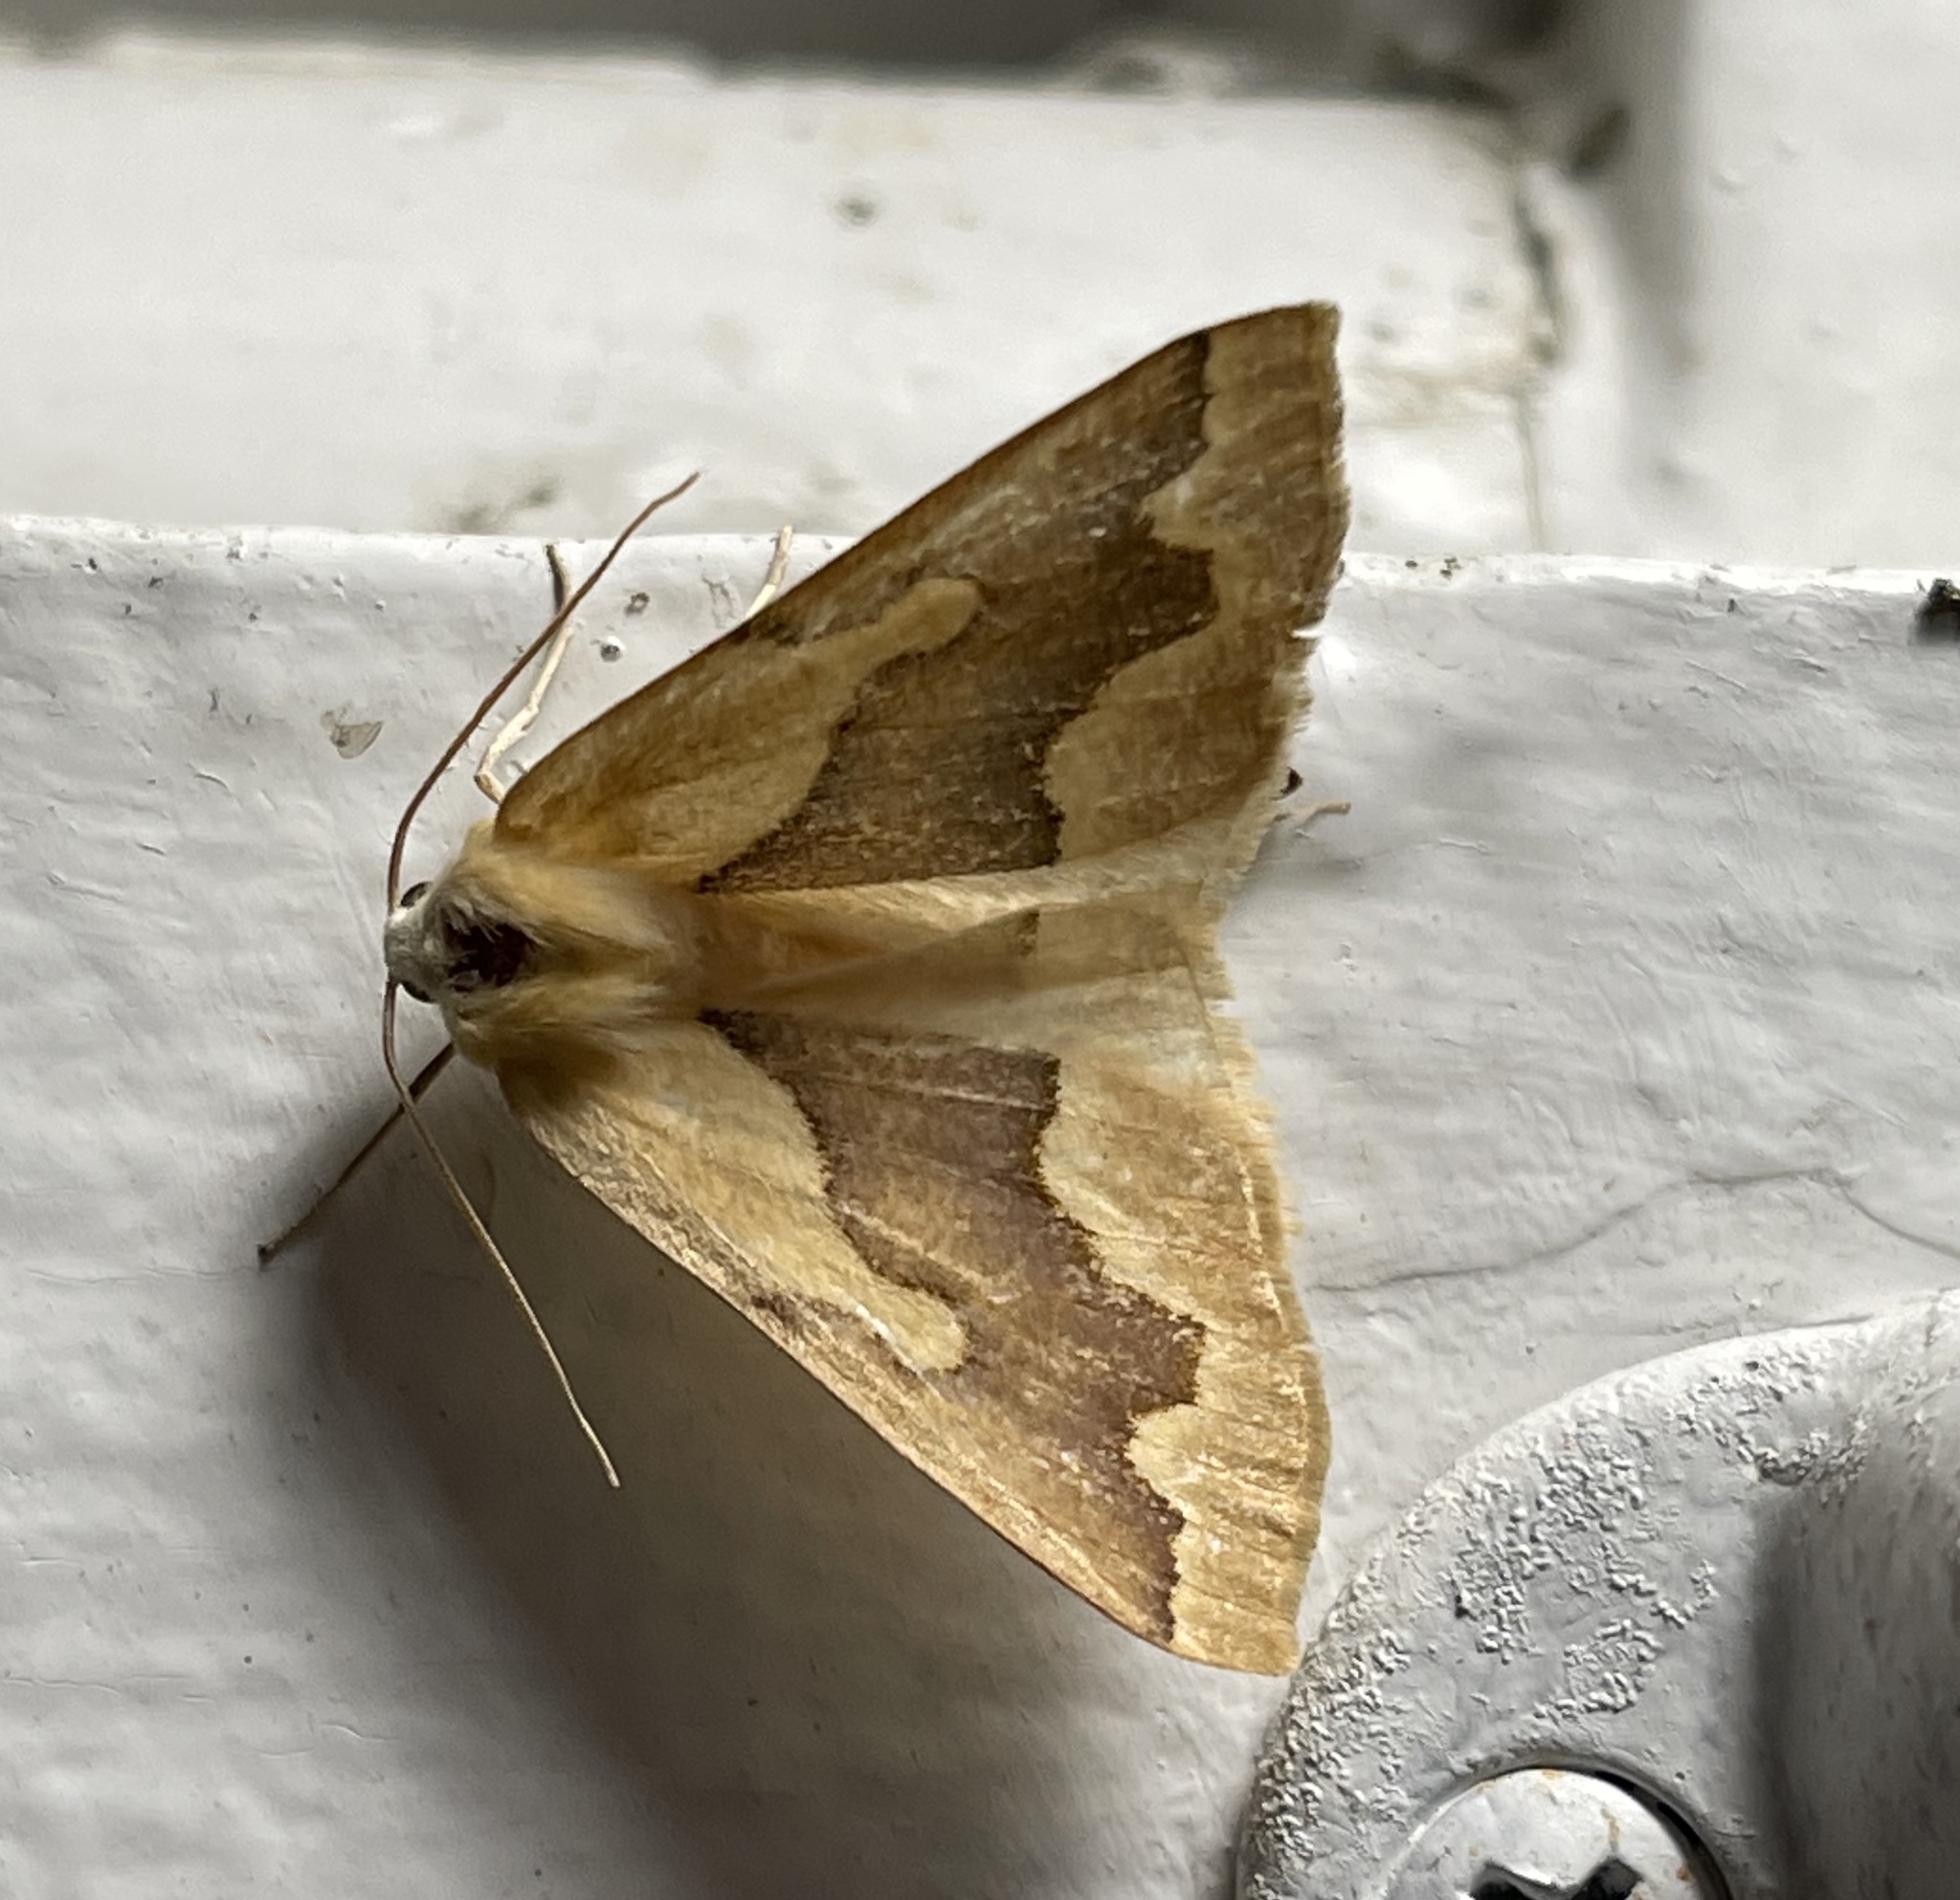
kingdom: Animalia
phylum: Arthropoda
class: Insecta
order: Lepidoptera
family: Geometridae
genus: Sabulodes
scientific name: Sabulodes edwardsata
